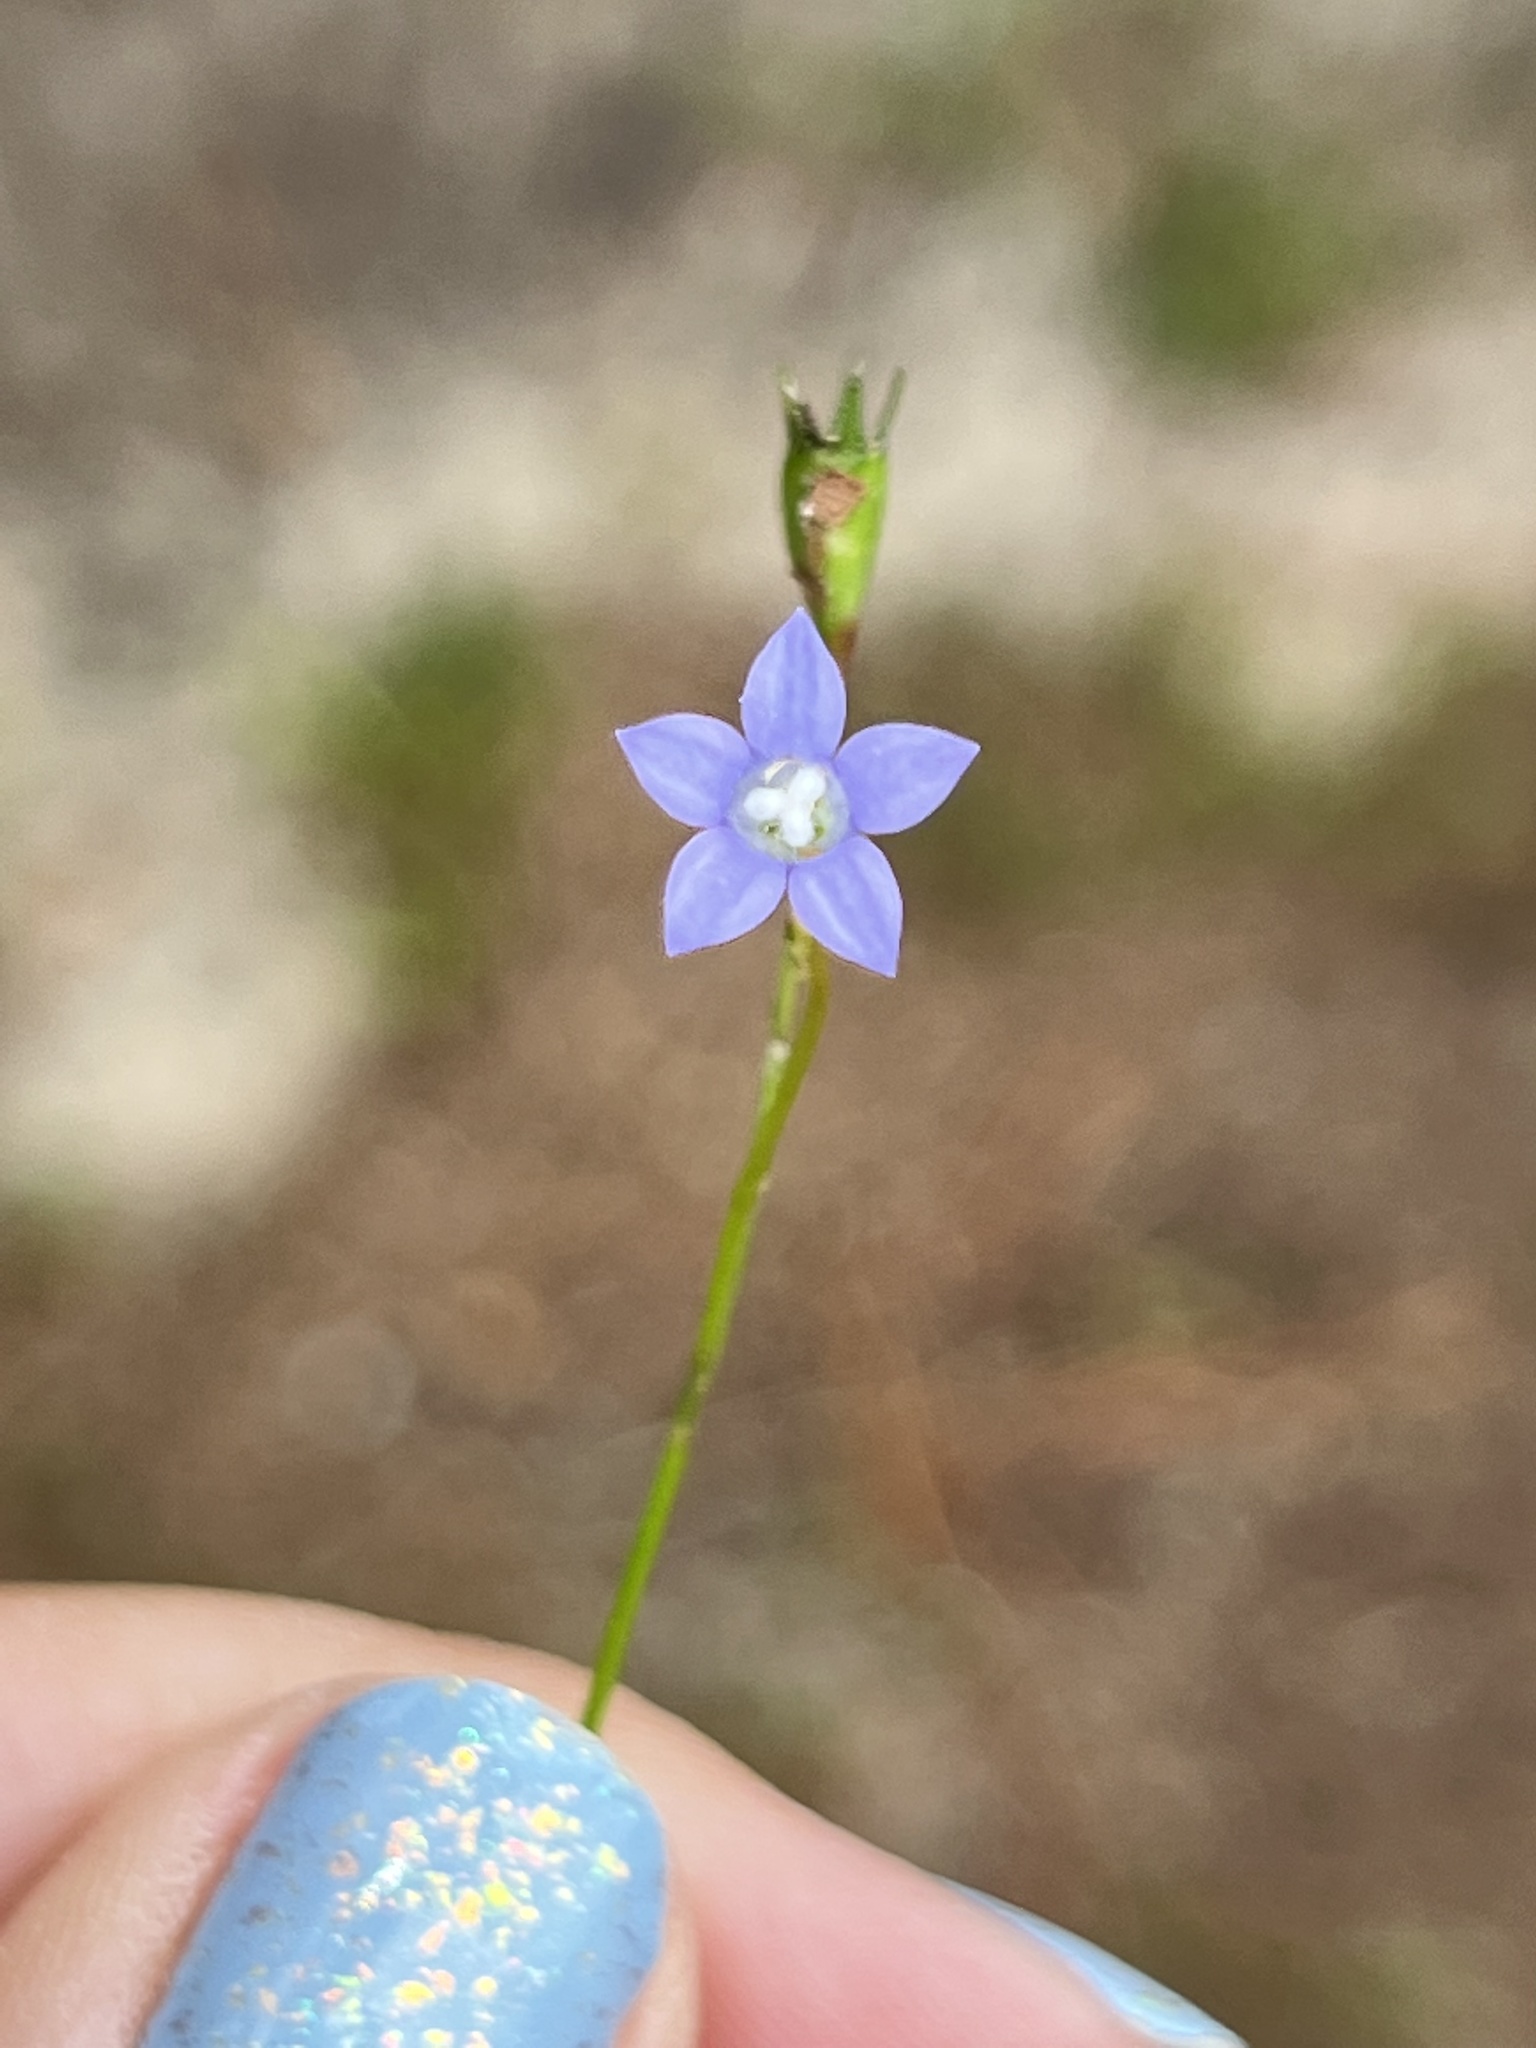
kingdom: Plantae
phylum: Tracheophyta
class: Magnoliopsida
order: Asterales
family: Campanulaceae
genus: Wahlenbergia
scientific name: Wahlenbergia marginata
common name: Southern rockbell
